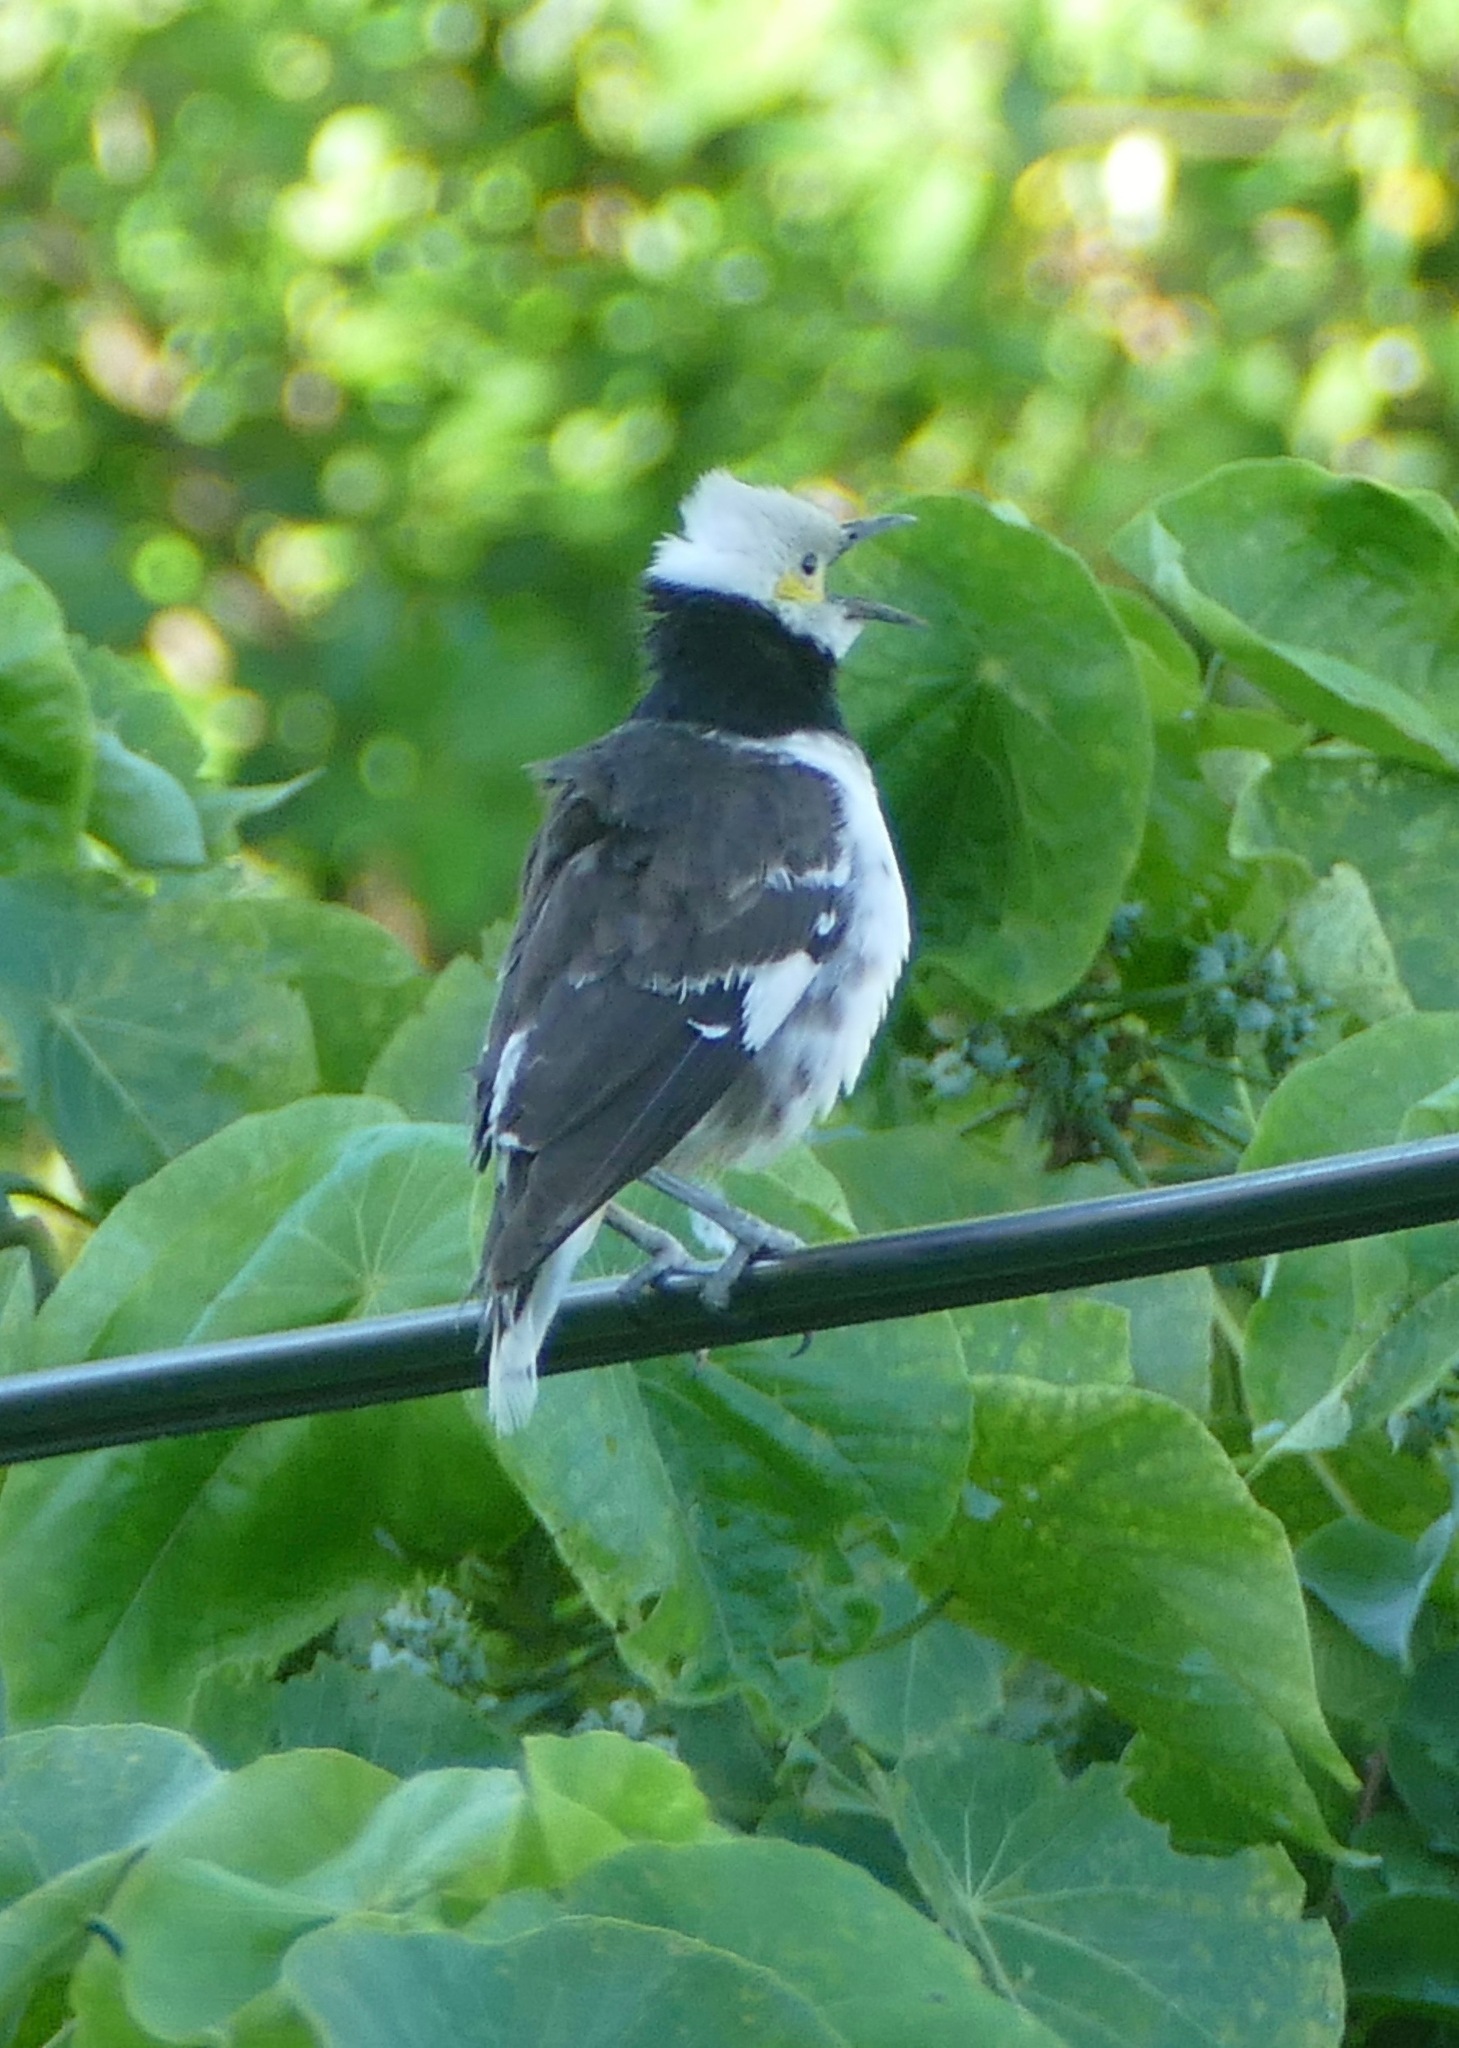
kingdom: Animalia
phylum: Chordata
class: Aves
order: Passeriformes
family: Sturnidae
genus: Gracupica
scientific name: Gracupica nigricollis
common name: Black-collared starling
